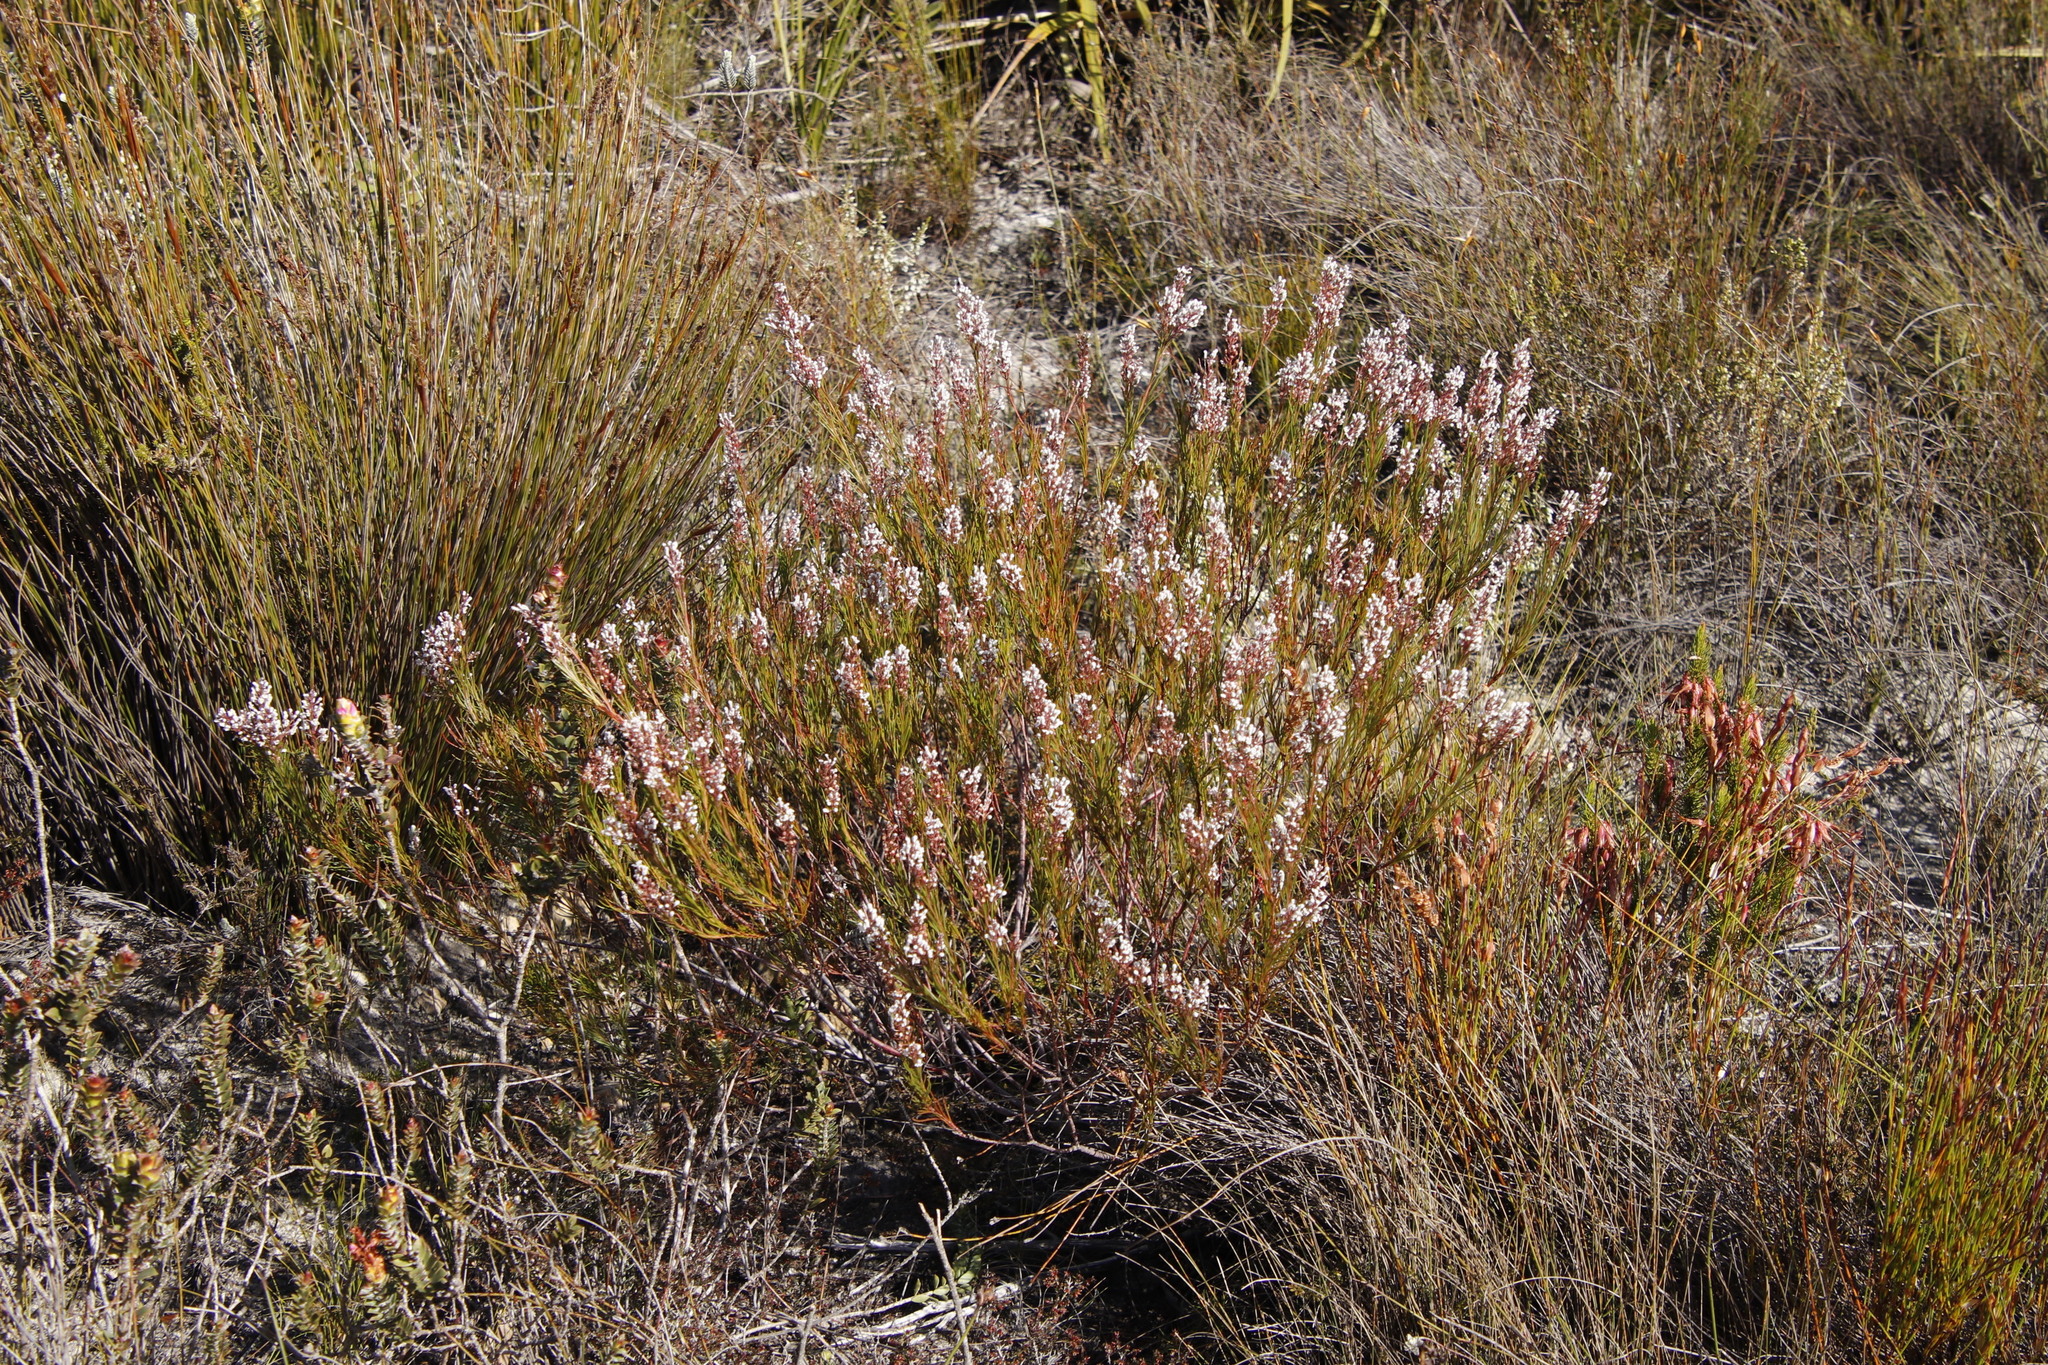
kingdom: Plantae
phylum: Tracheophyta
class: Magnoliopsida
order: Proteales
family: Proteaceae
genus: Spatalla
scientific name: Spatalla racemosa
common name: Lax-stalked spoon
